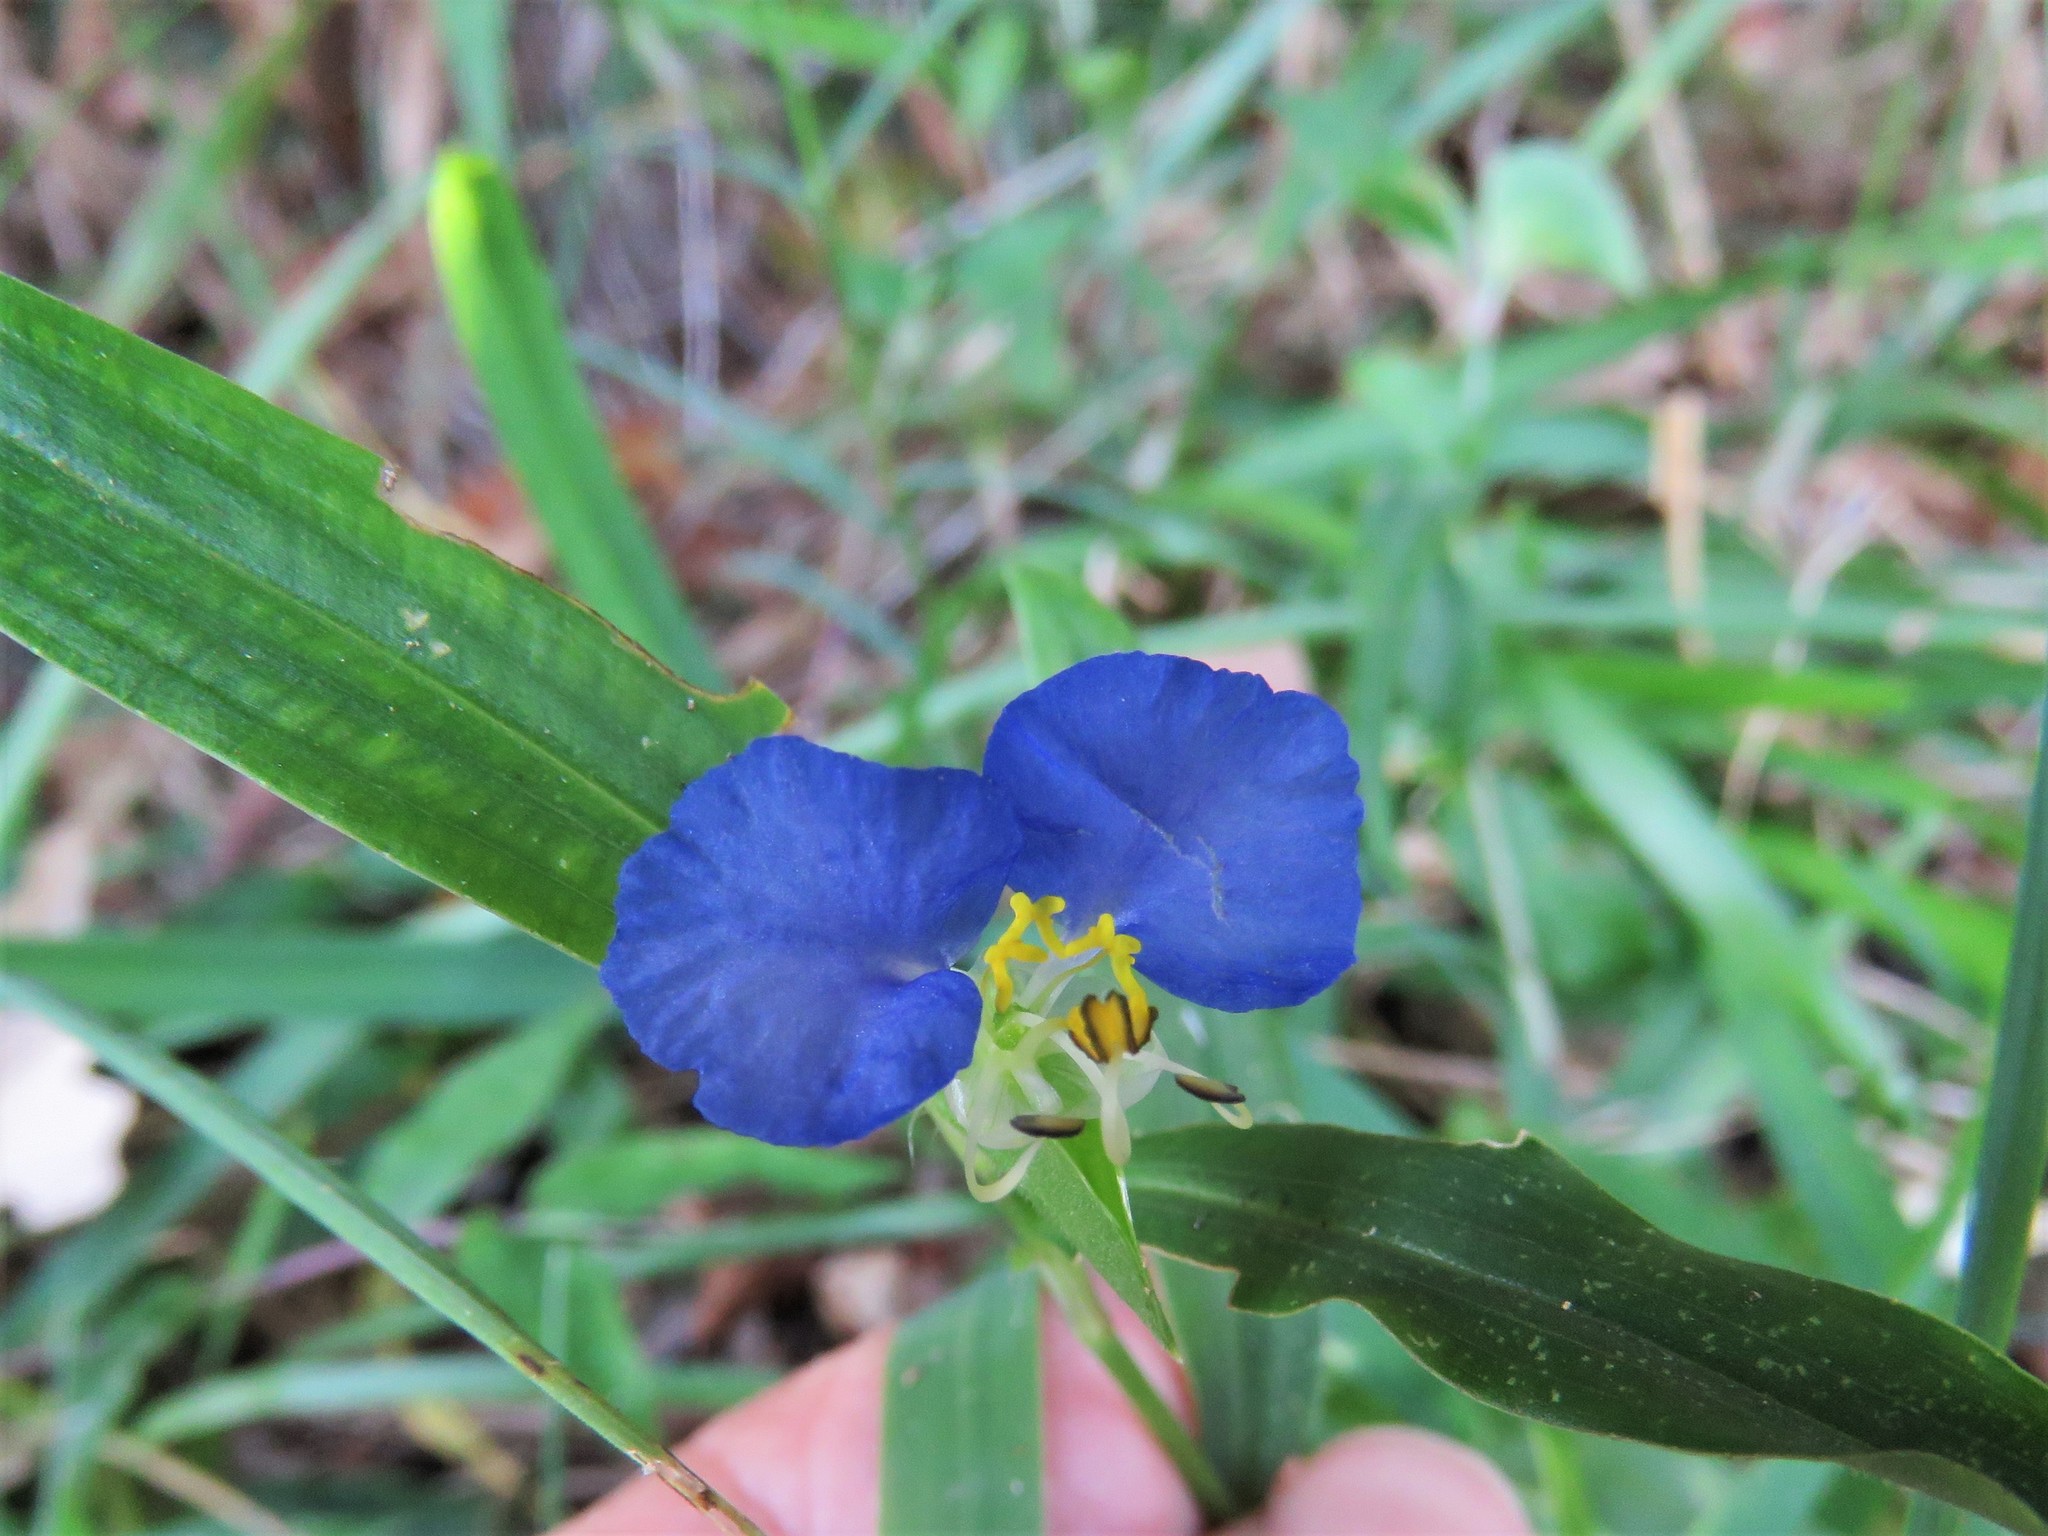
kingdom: Plantae
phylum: Tracheophyta
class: Liliopsida
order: Commelinales
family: Commelinaceae
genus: Commelina
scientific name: Commelina erecta
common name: Blousel blommetjie
